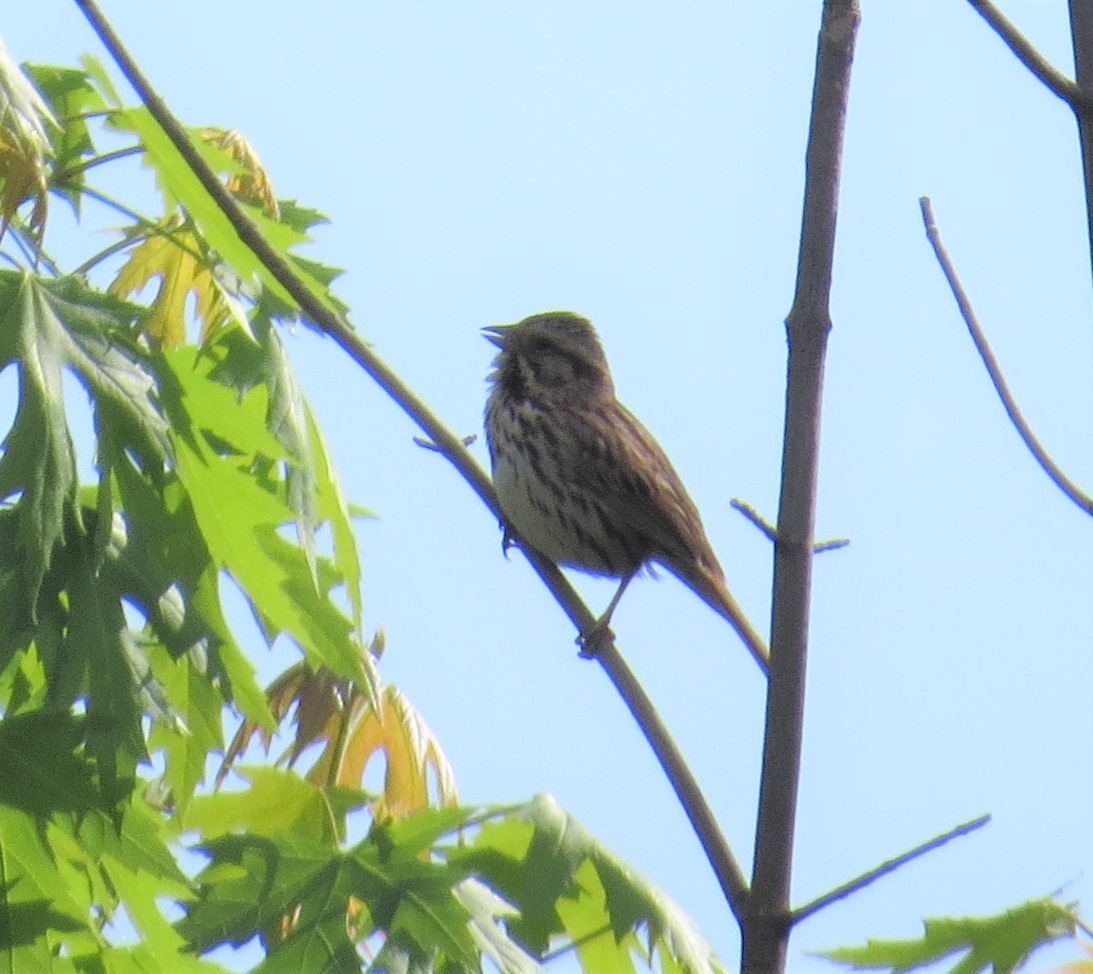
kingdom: Animalia
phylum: Chordata
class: Aves
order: Passeriformes
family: Passerellidae
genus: Melospiza
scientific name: Melospiza melodia
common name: Song sparrow
